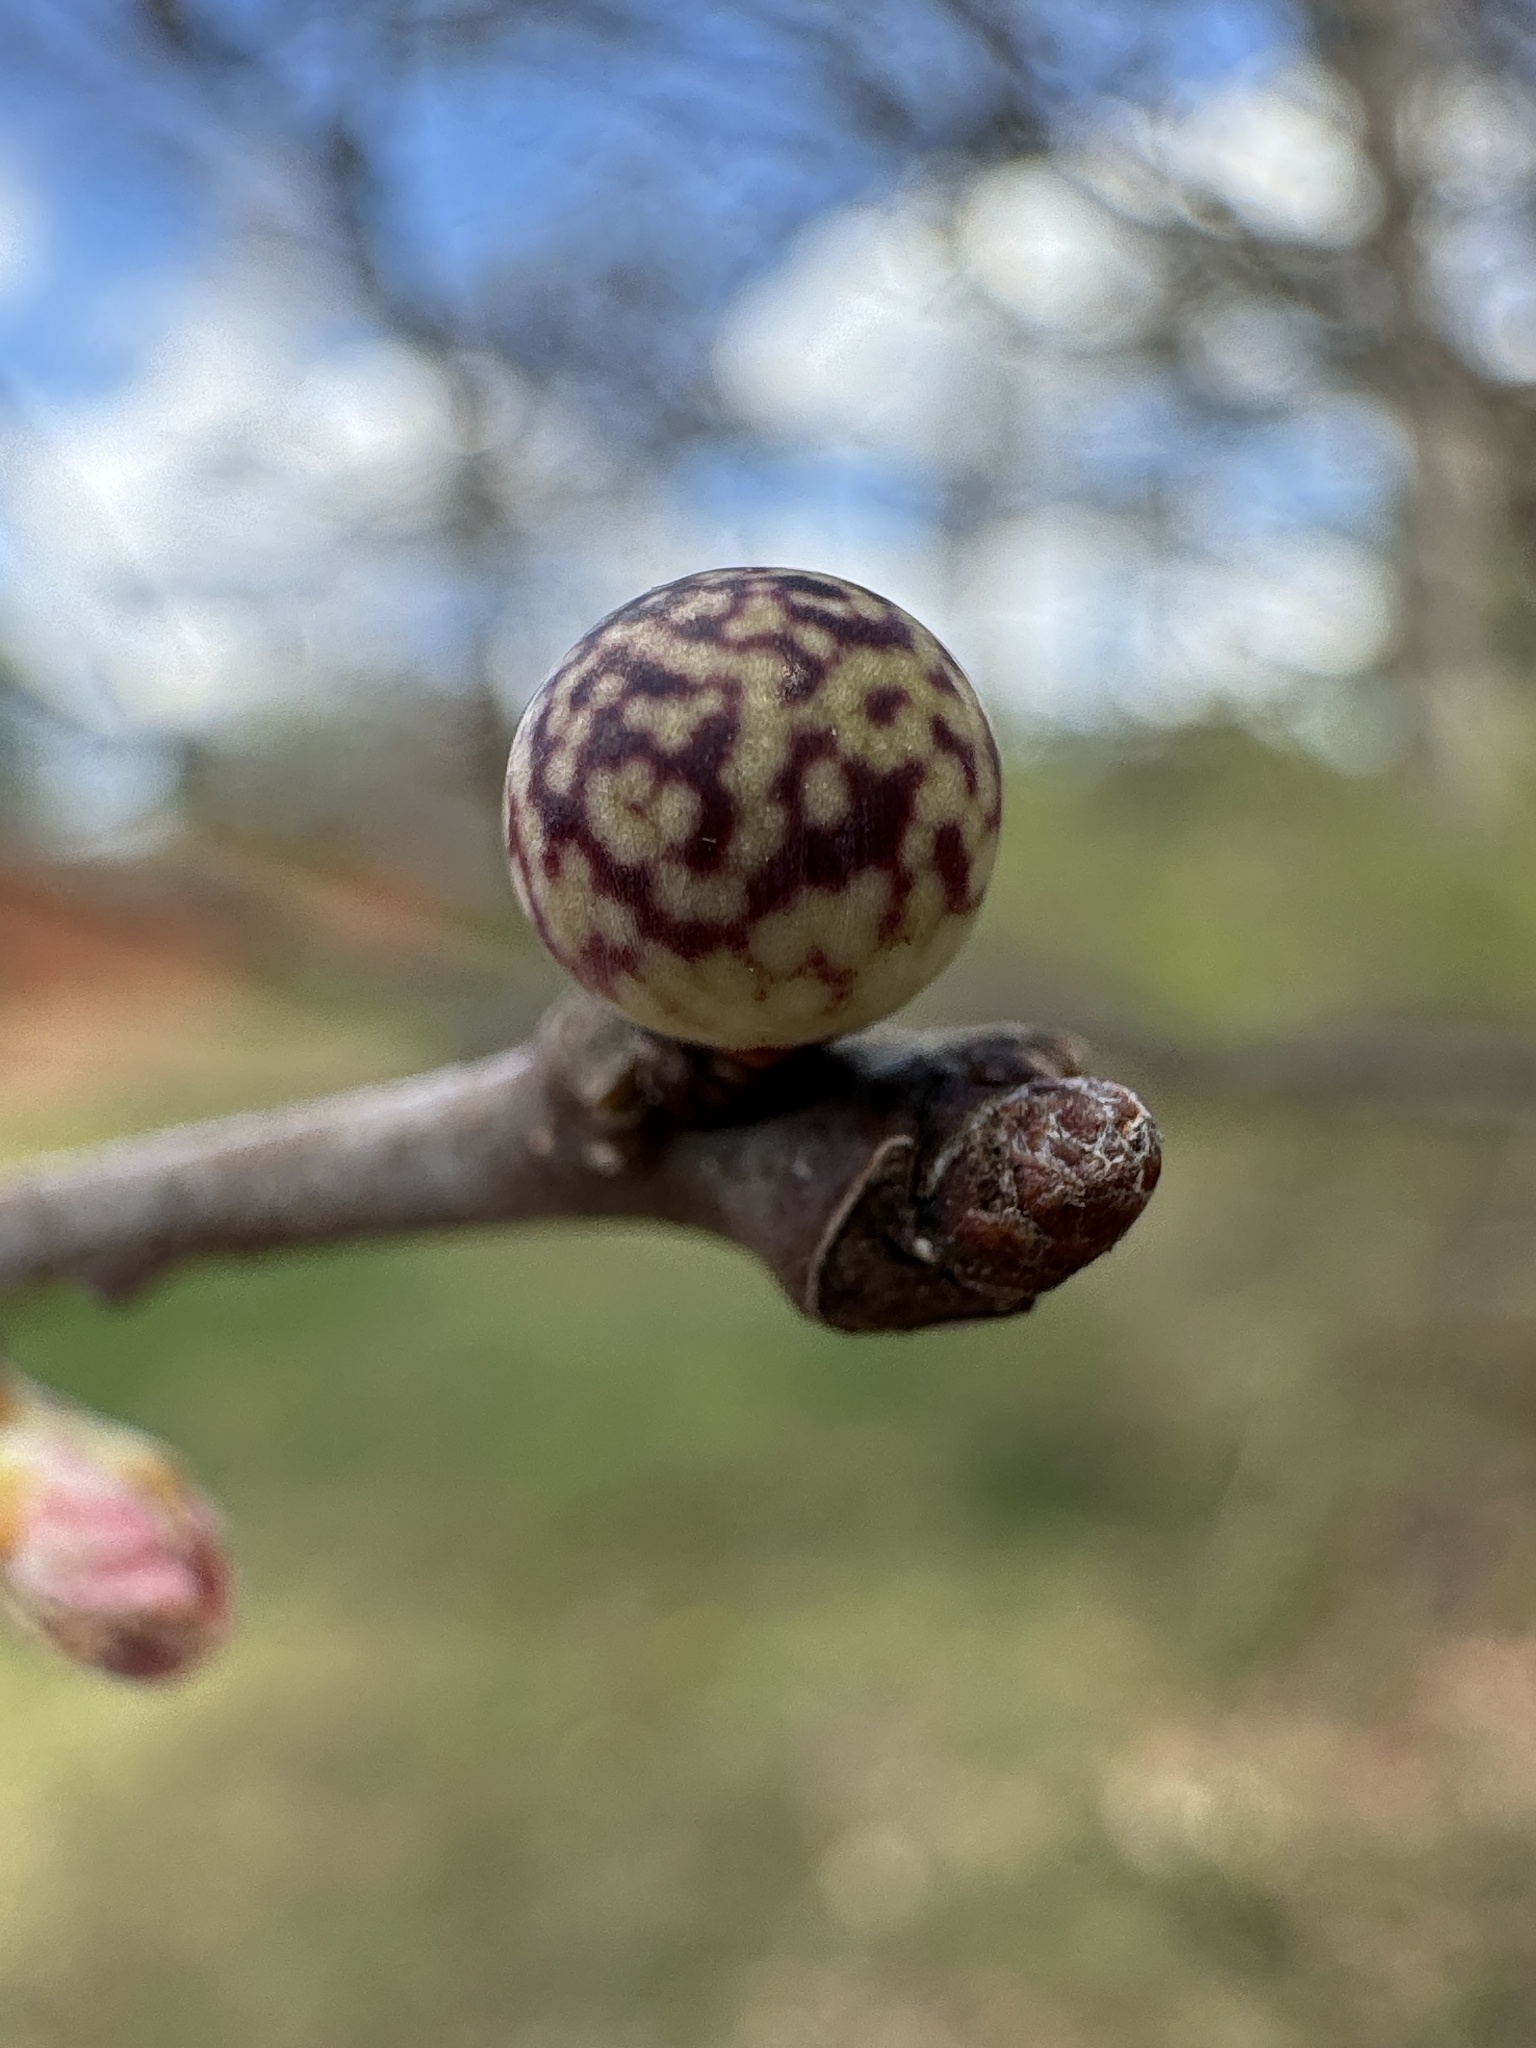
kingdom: Animalia
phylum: Arthropoda
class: Insecta
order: Hymenoptera
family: Cynipidae
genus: Andricus
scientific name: Andricus
